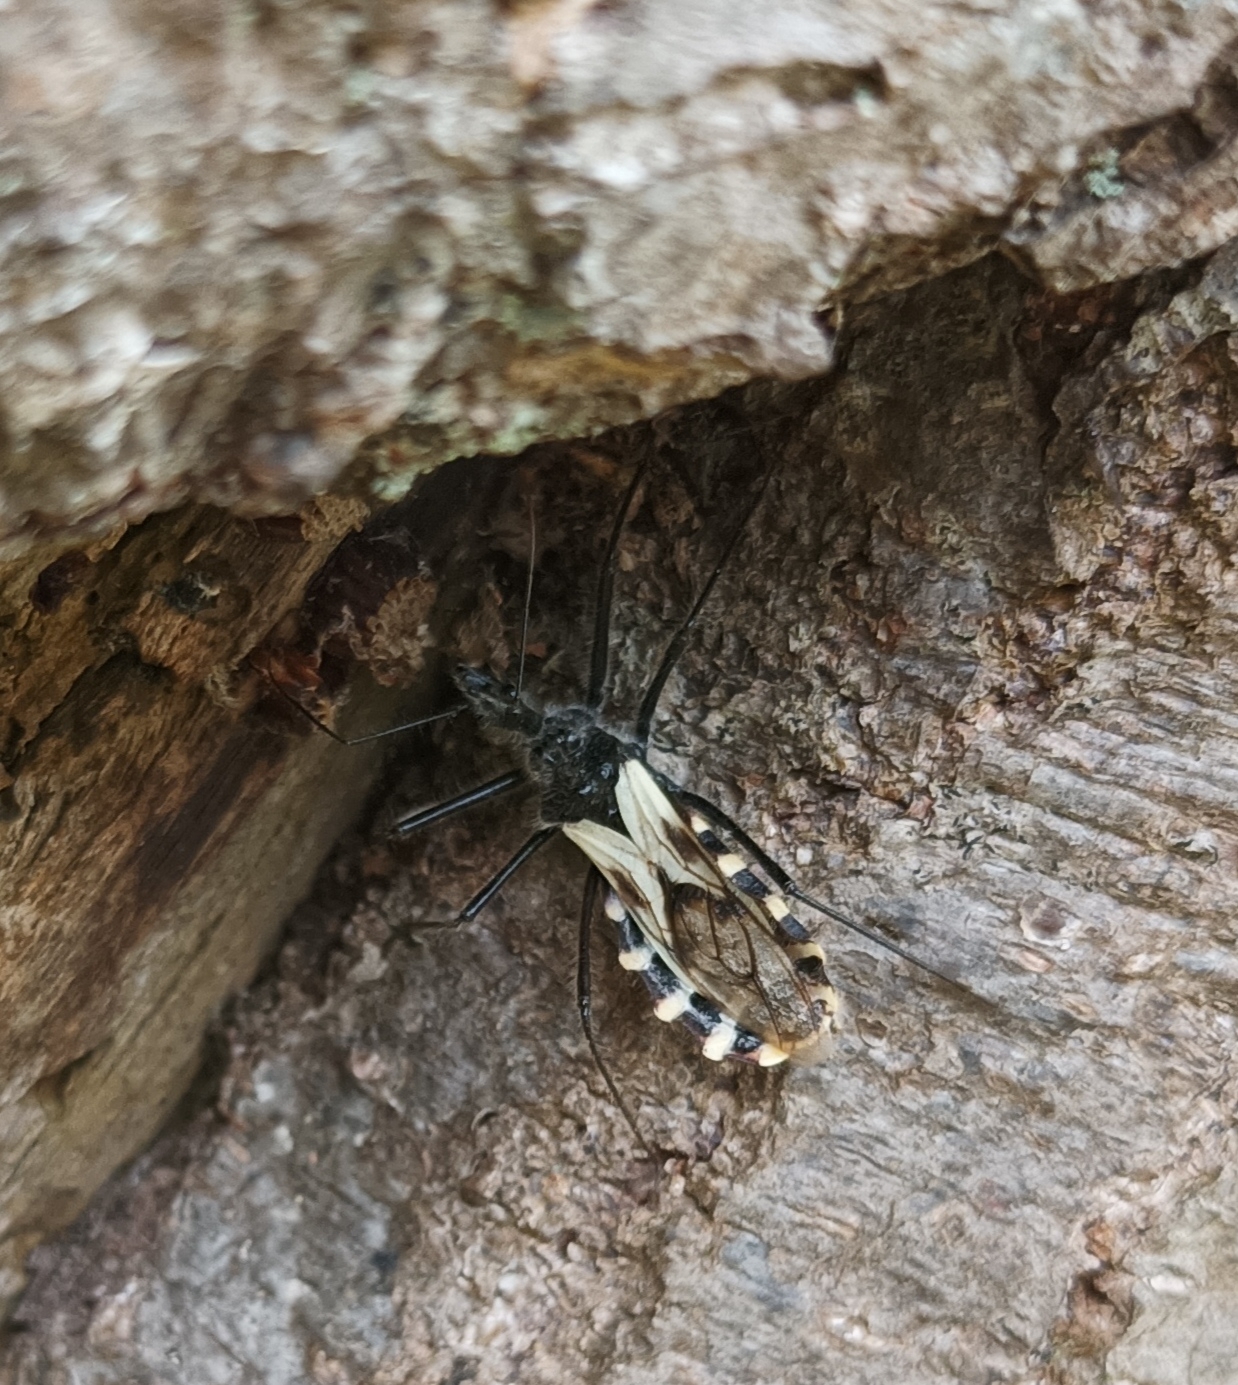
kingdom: Animalia
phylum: Arthropoda
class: Insecta
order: Hemiptera
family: Reduviidae
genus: Ambastus
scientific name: Ambastus villosus
